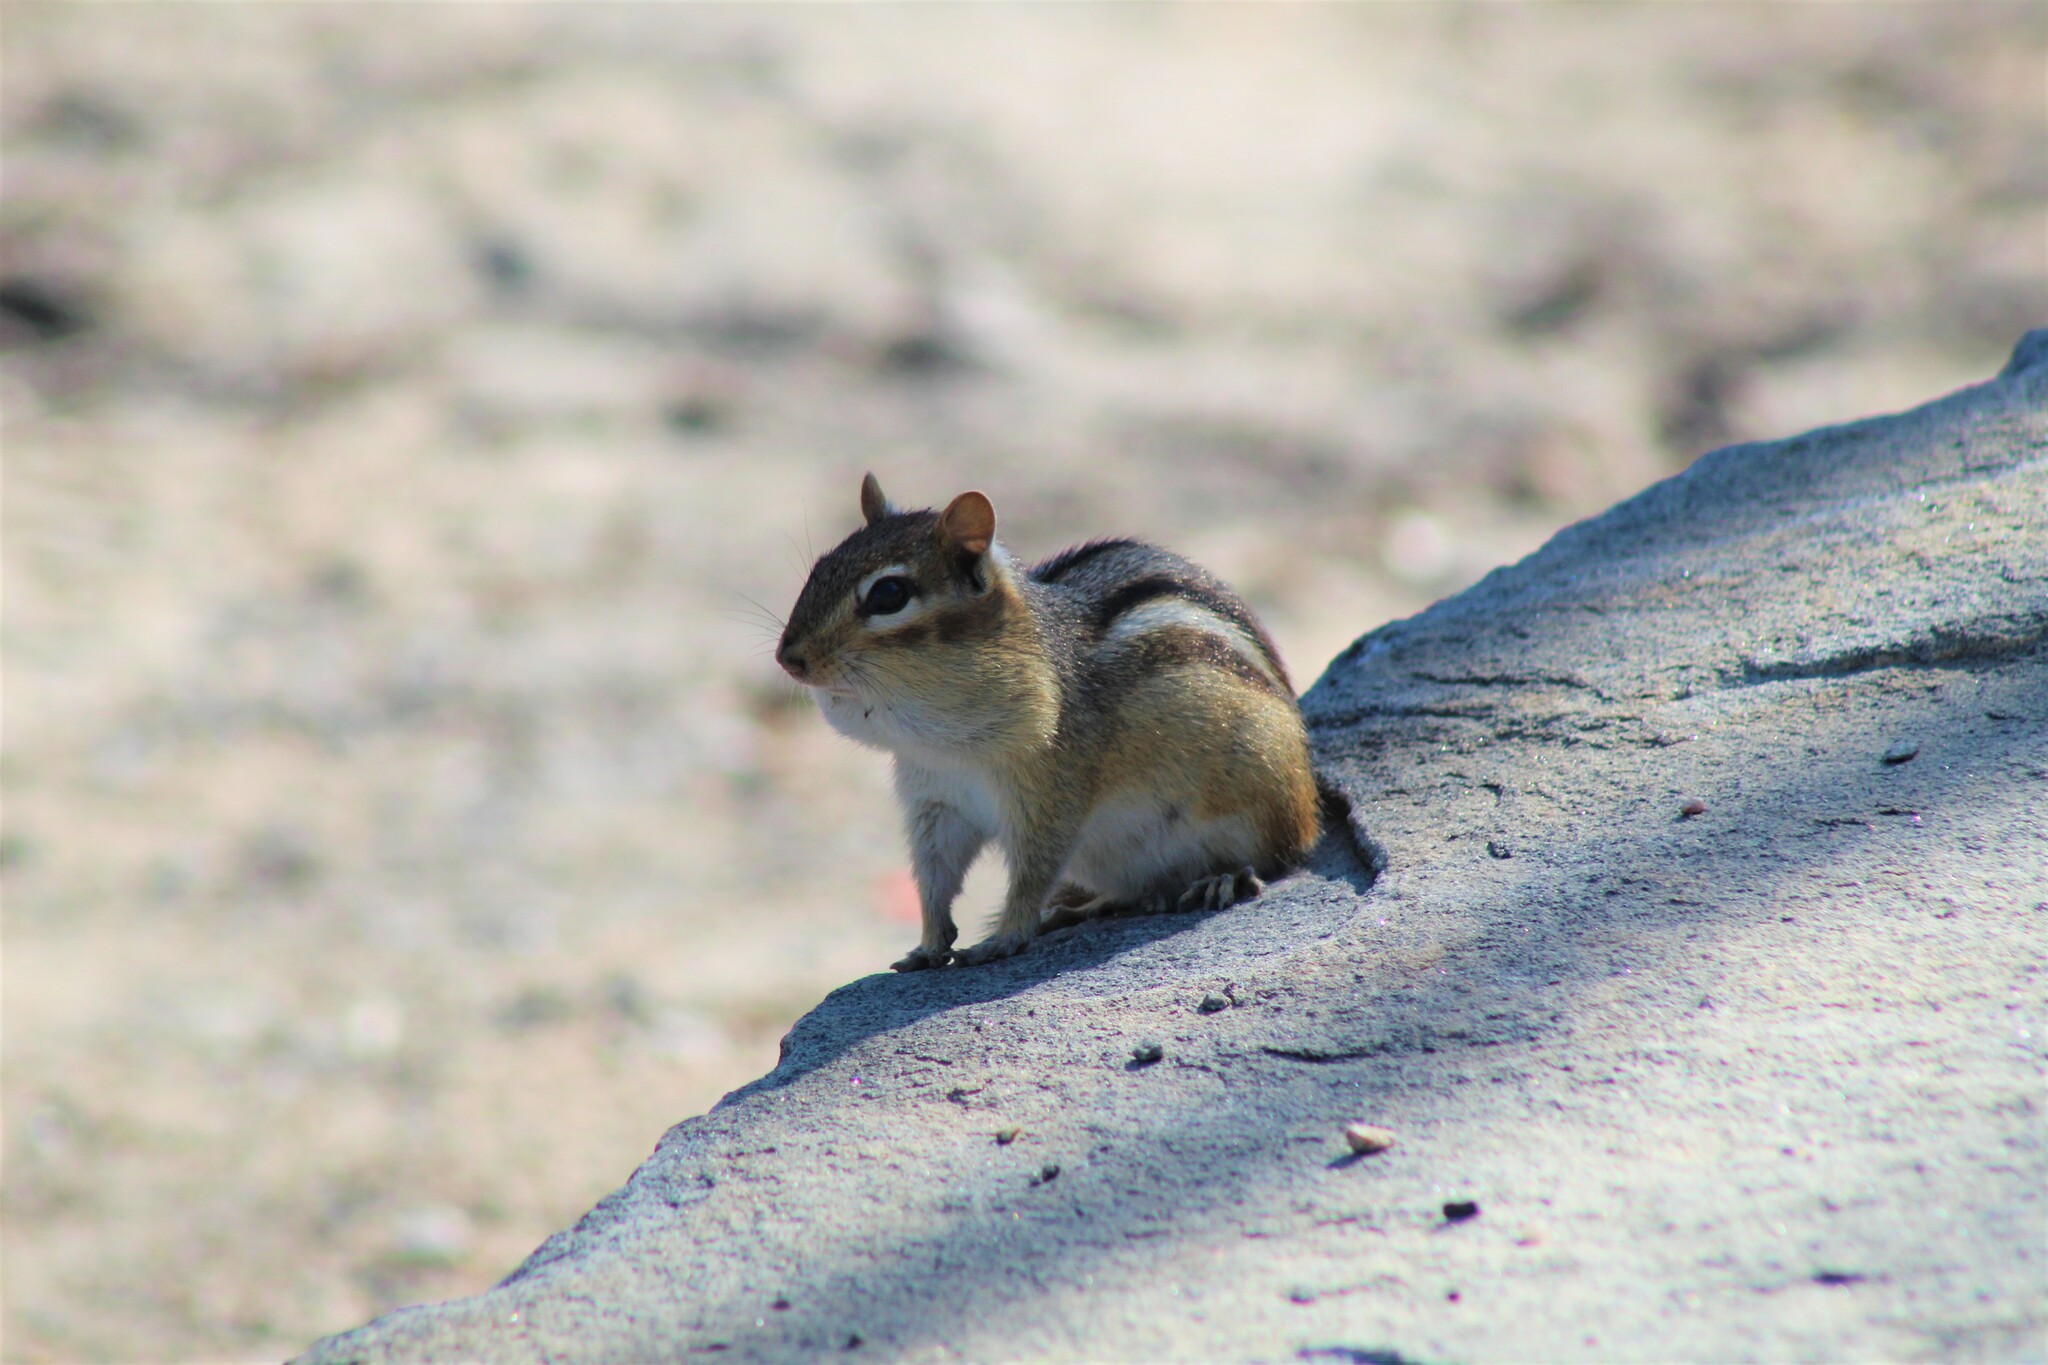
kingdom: Animalia
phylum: Chordata
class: Mammalia
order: Rodentia
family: Sciuridae
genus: Tamias
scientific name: Tamias striatus
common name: Eastern chipmunk
